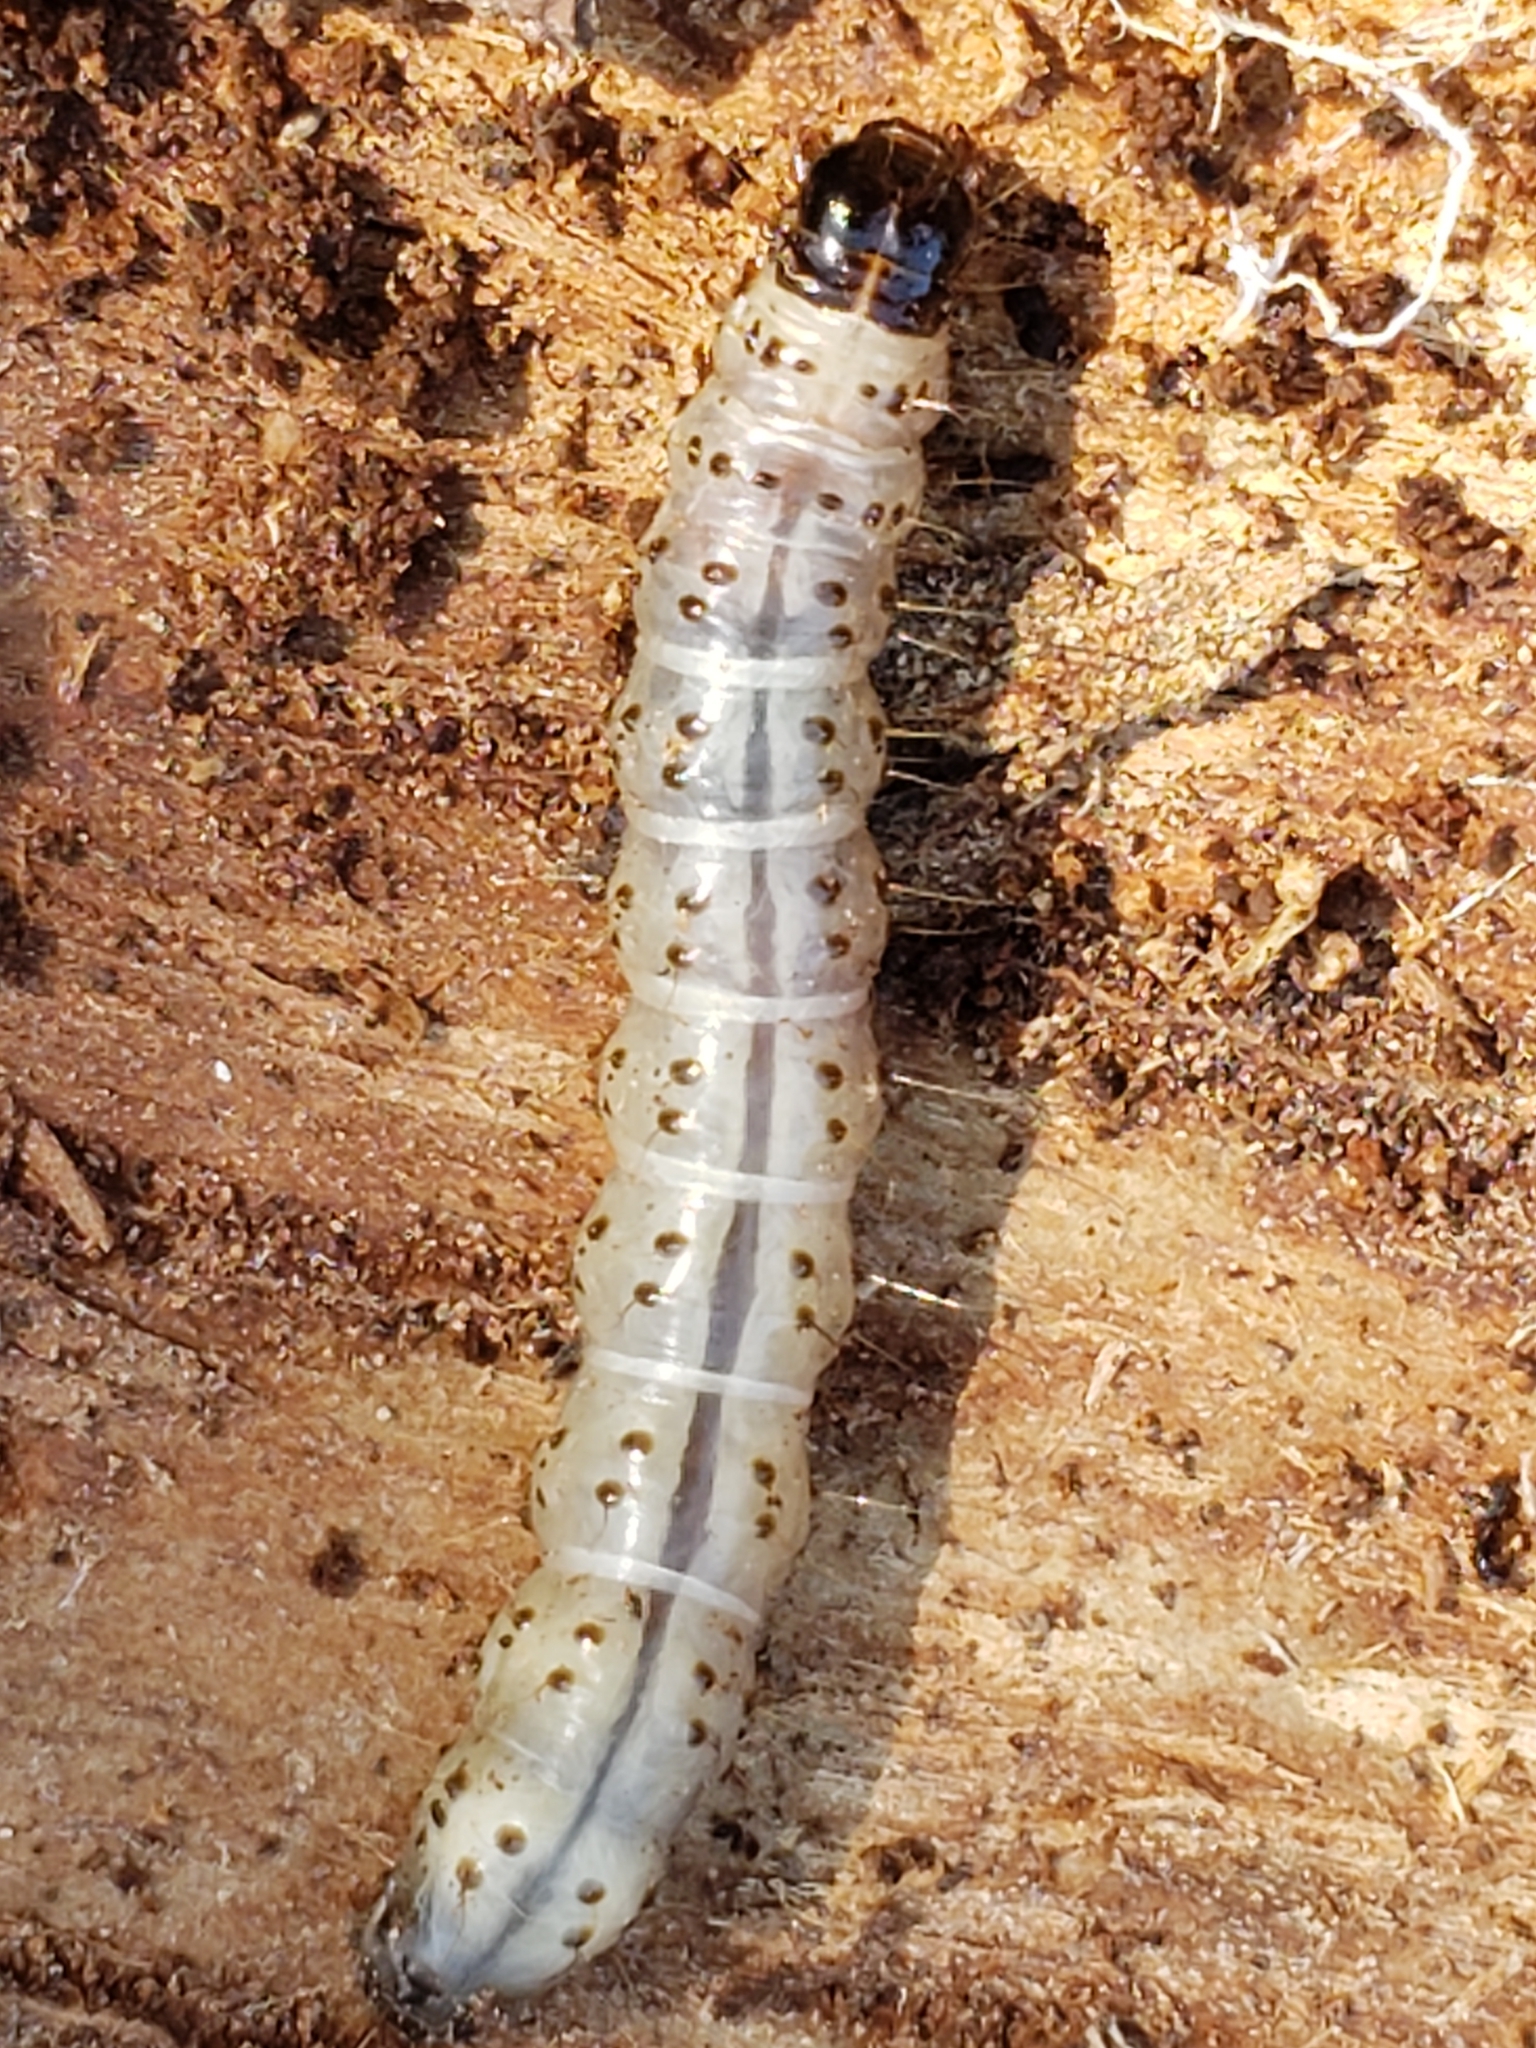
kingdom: Animalia
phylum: Arthropoda
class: Insecta
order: Lepidoptera
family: Erebidae
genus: Scolecocampa
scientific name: Scolecocampa liburna
